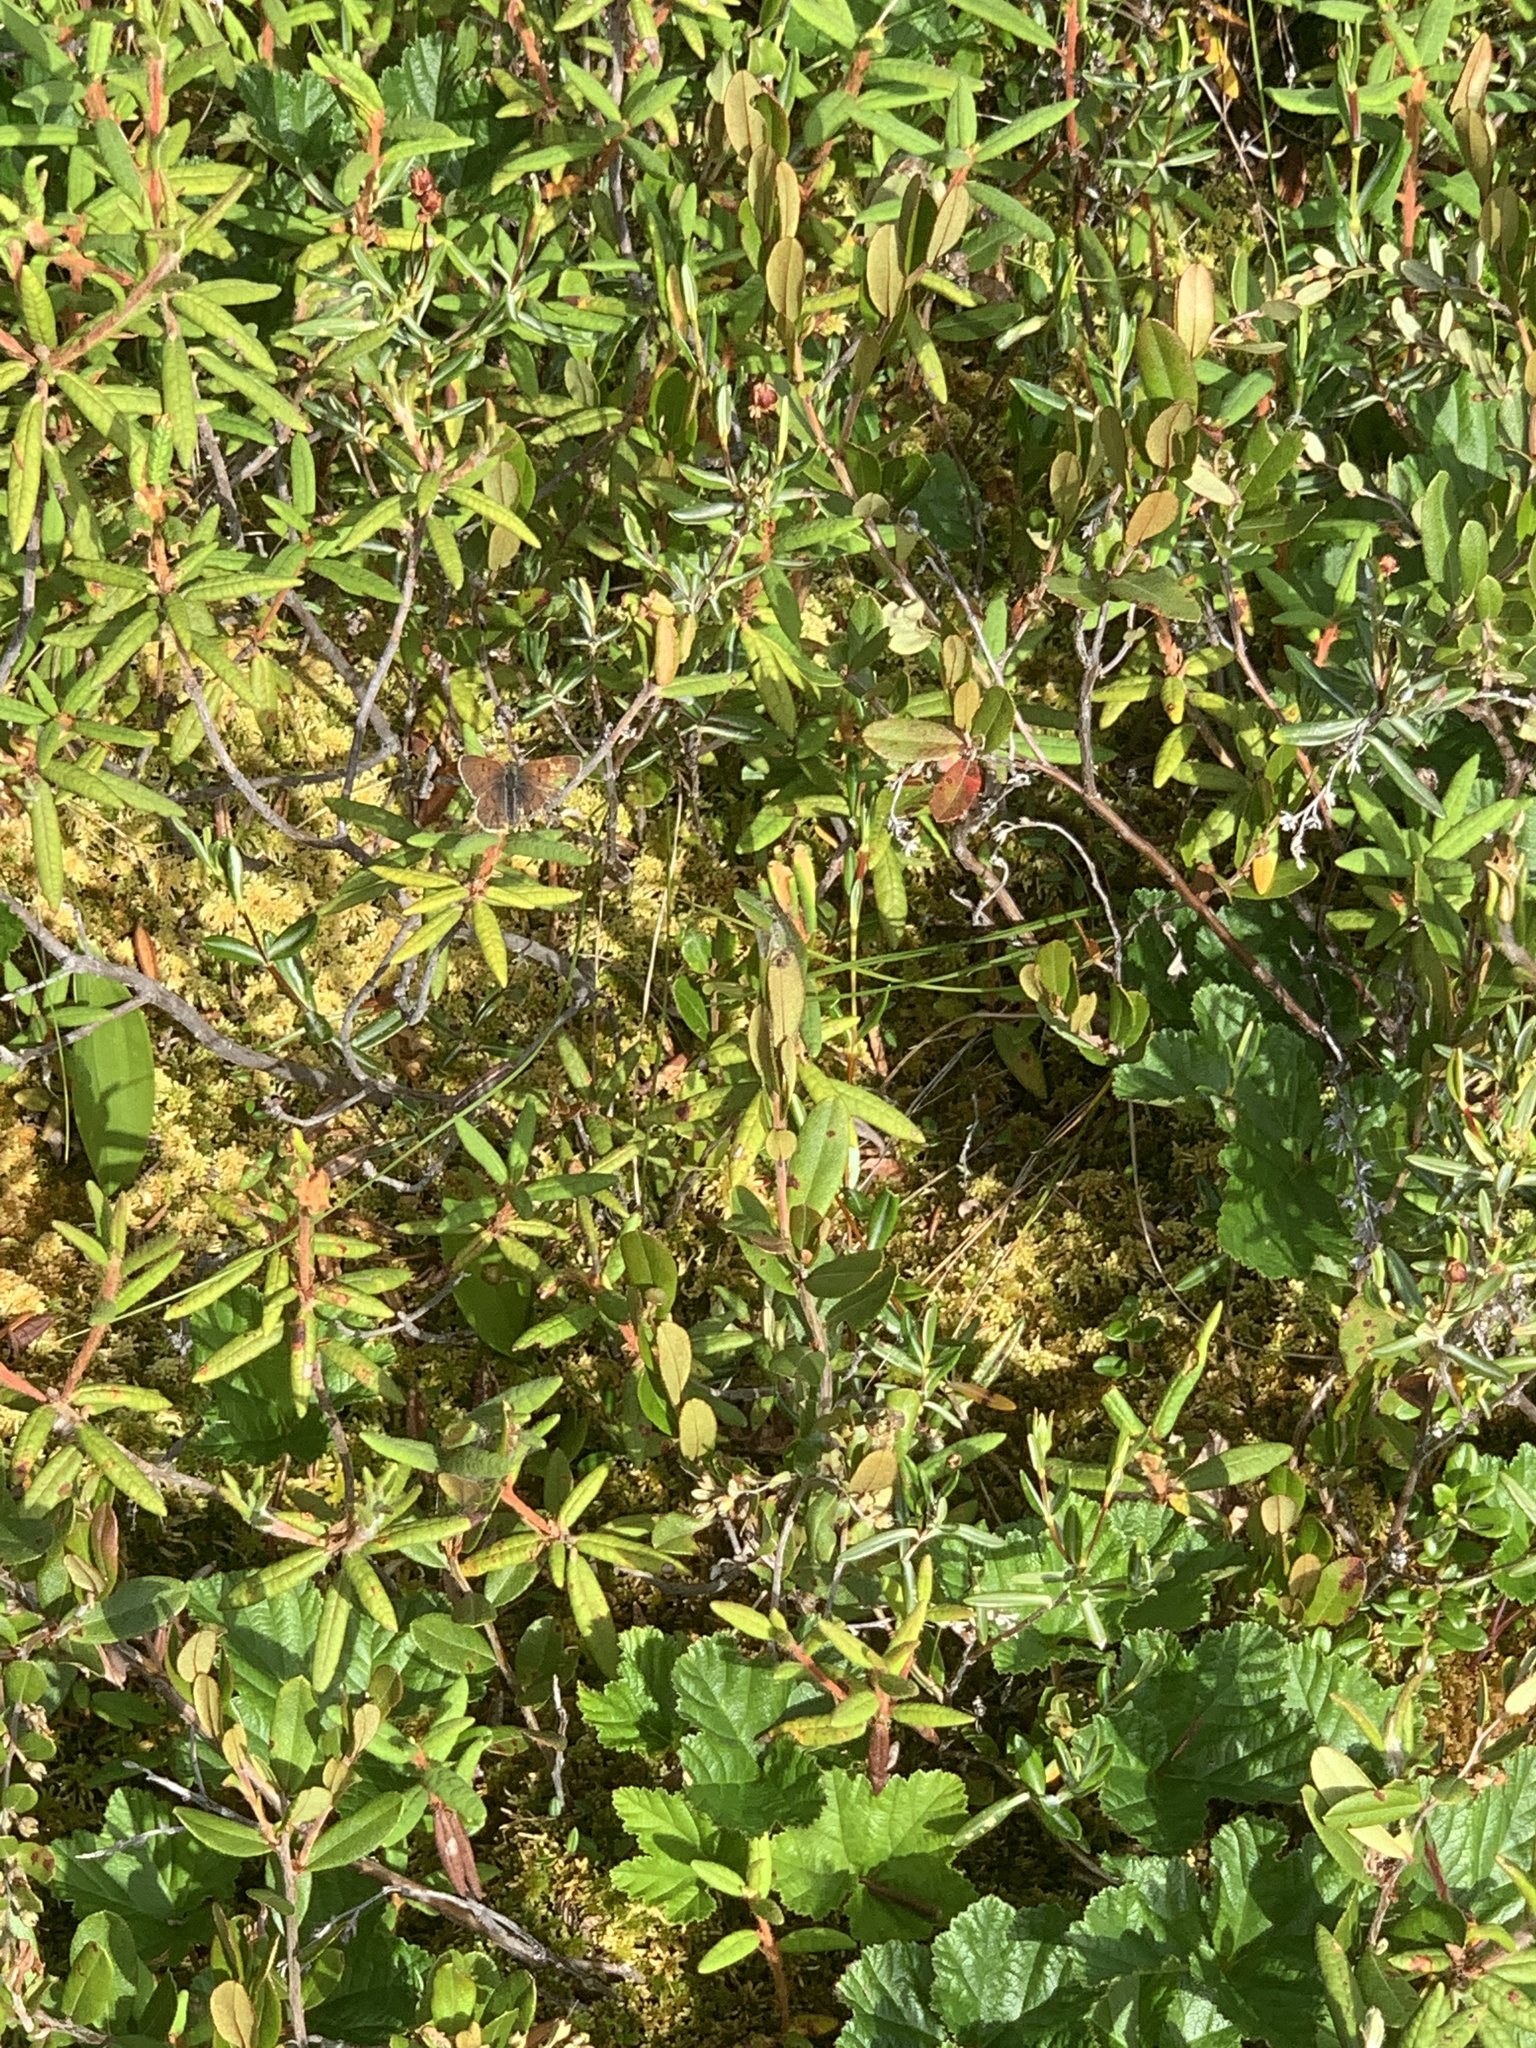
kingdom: Animalia
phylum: Arthropoda
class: Insecta
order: Lepidoptera
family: Lycaenidae
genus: Tharsalea
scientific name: Tharsalea dorcas
